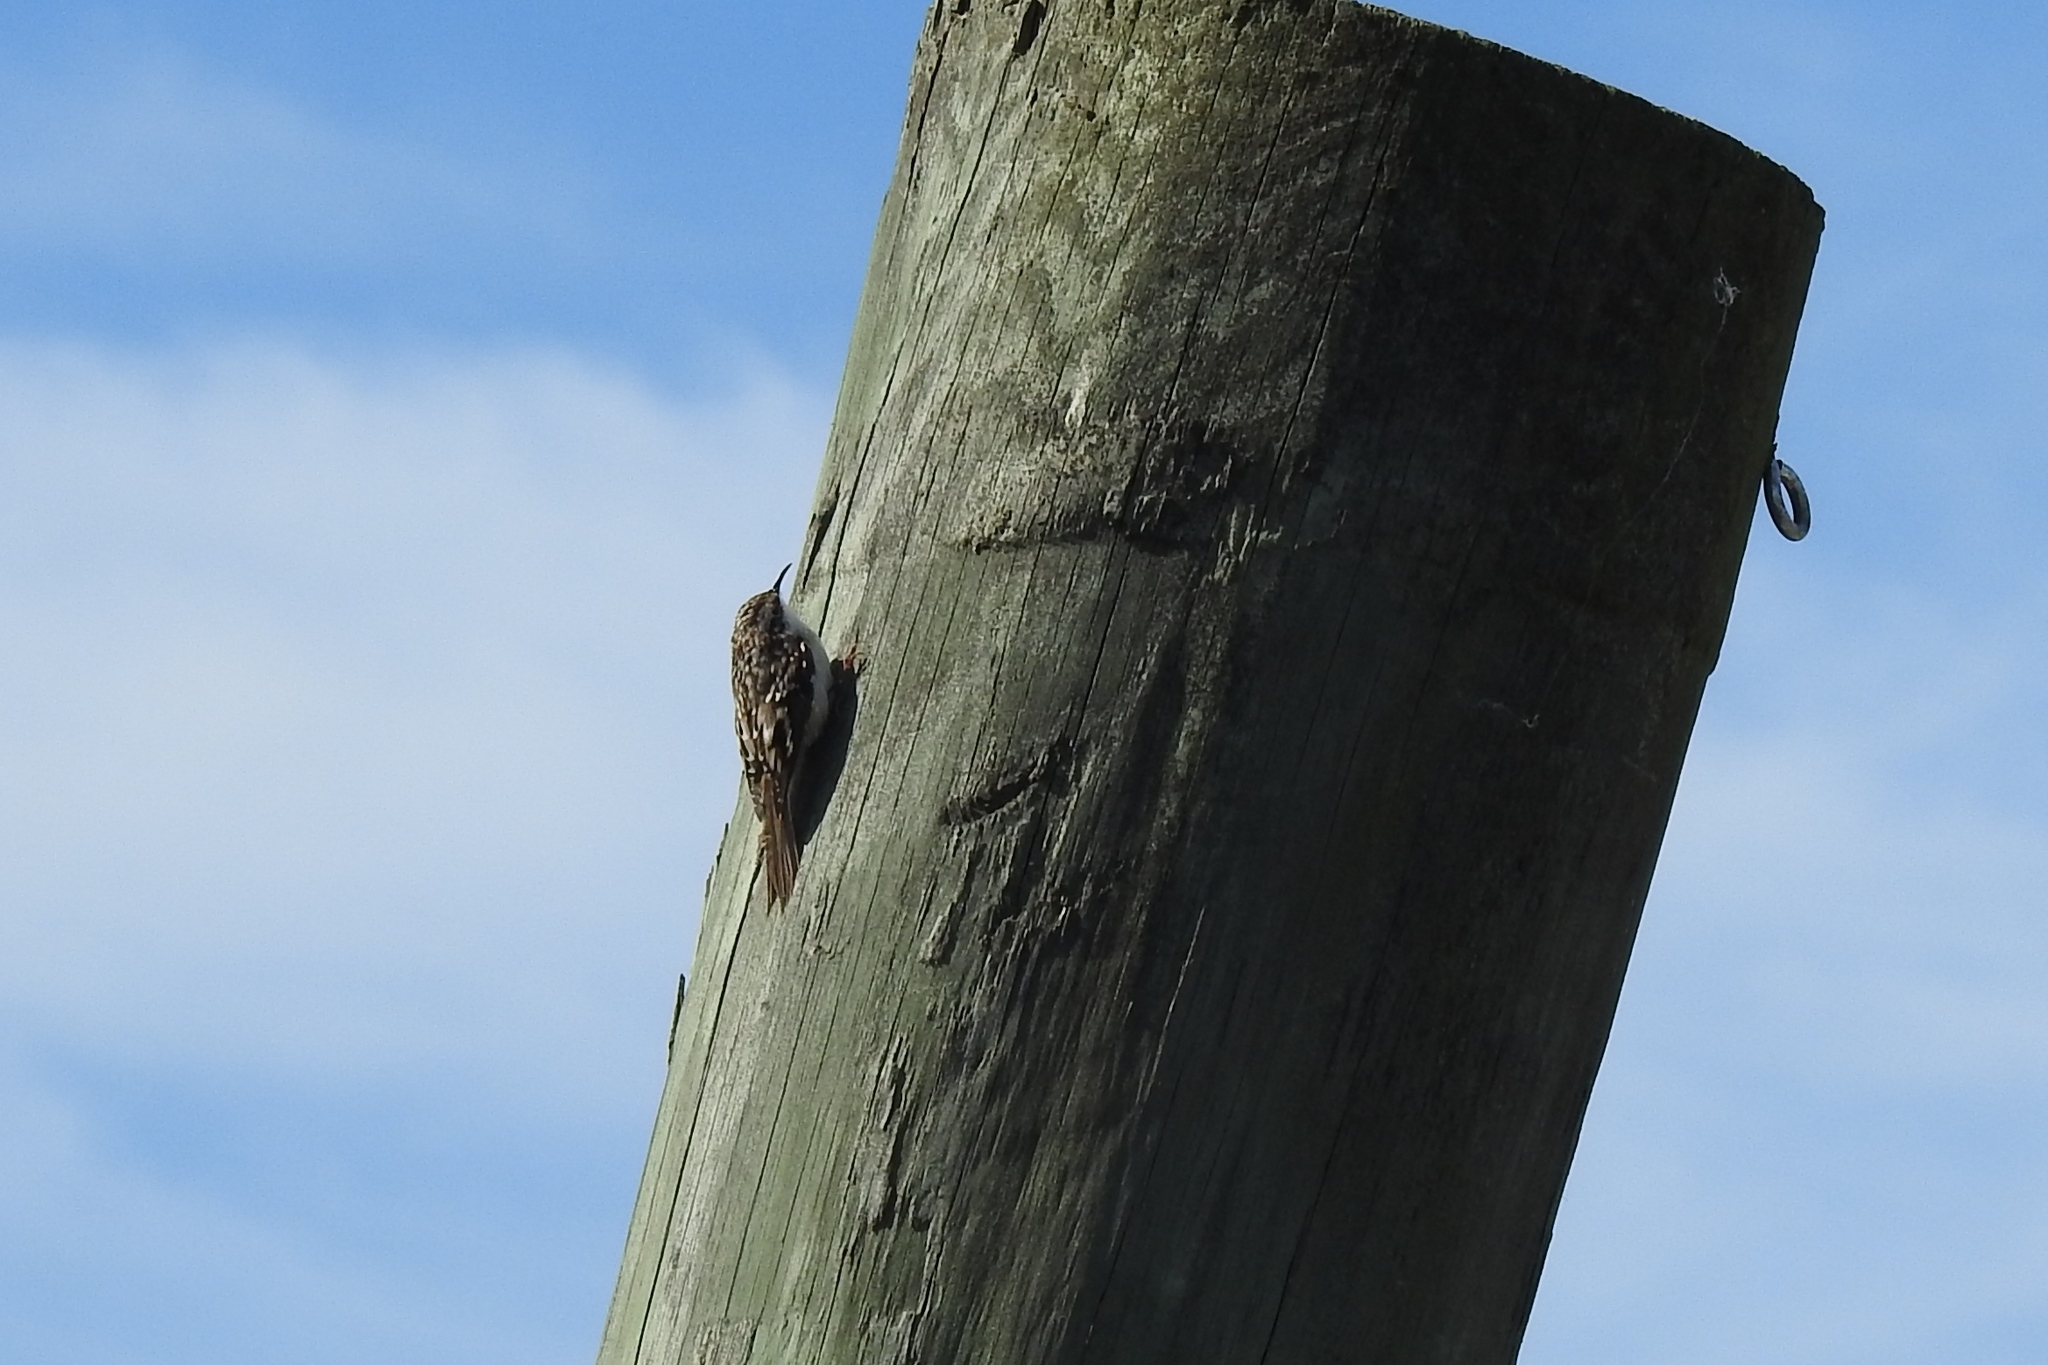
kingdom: Animalia
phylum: Chordata
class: Aves
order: Passeriformes
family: Certhiidae
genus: Certhia
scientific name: Certhia americana
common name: Brown creeper
